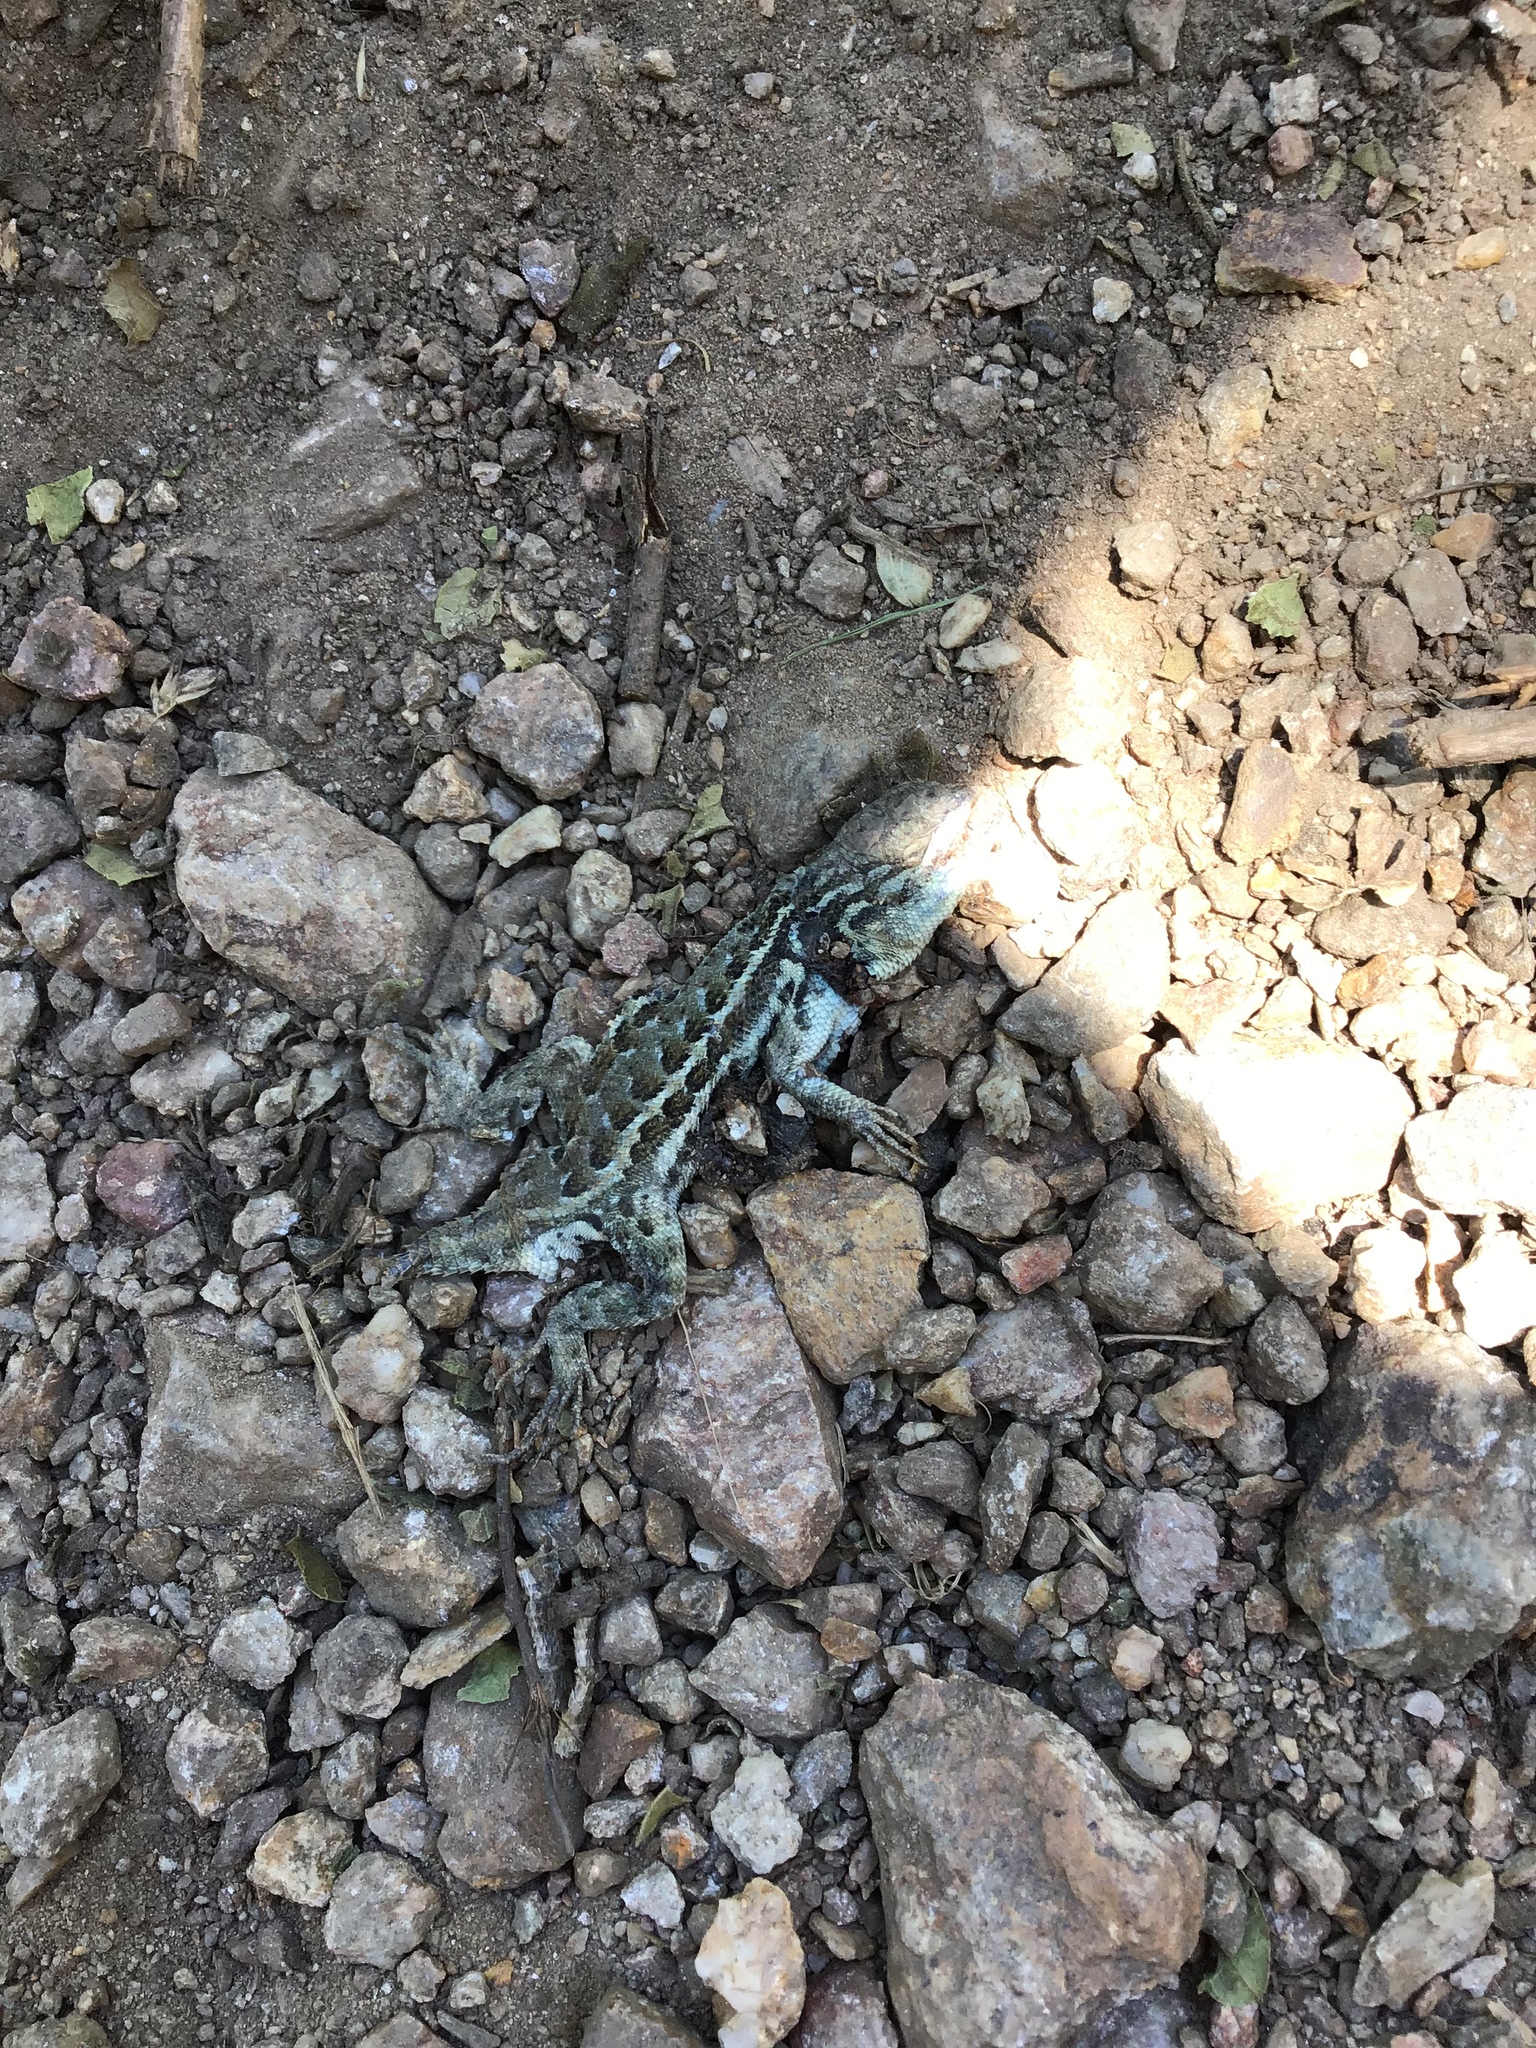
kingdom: Animalia
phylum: Chordata
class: Squamata
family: Phrynosomatidae
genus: Sceloporus
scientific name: Sceloporus graciosus
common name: Sagebrush lizard
